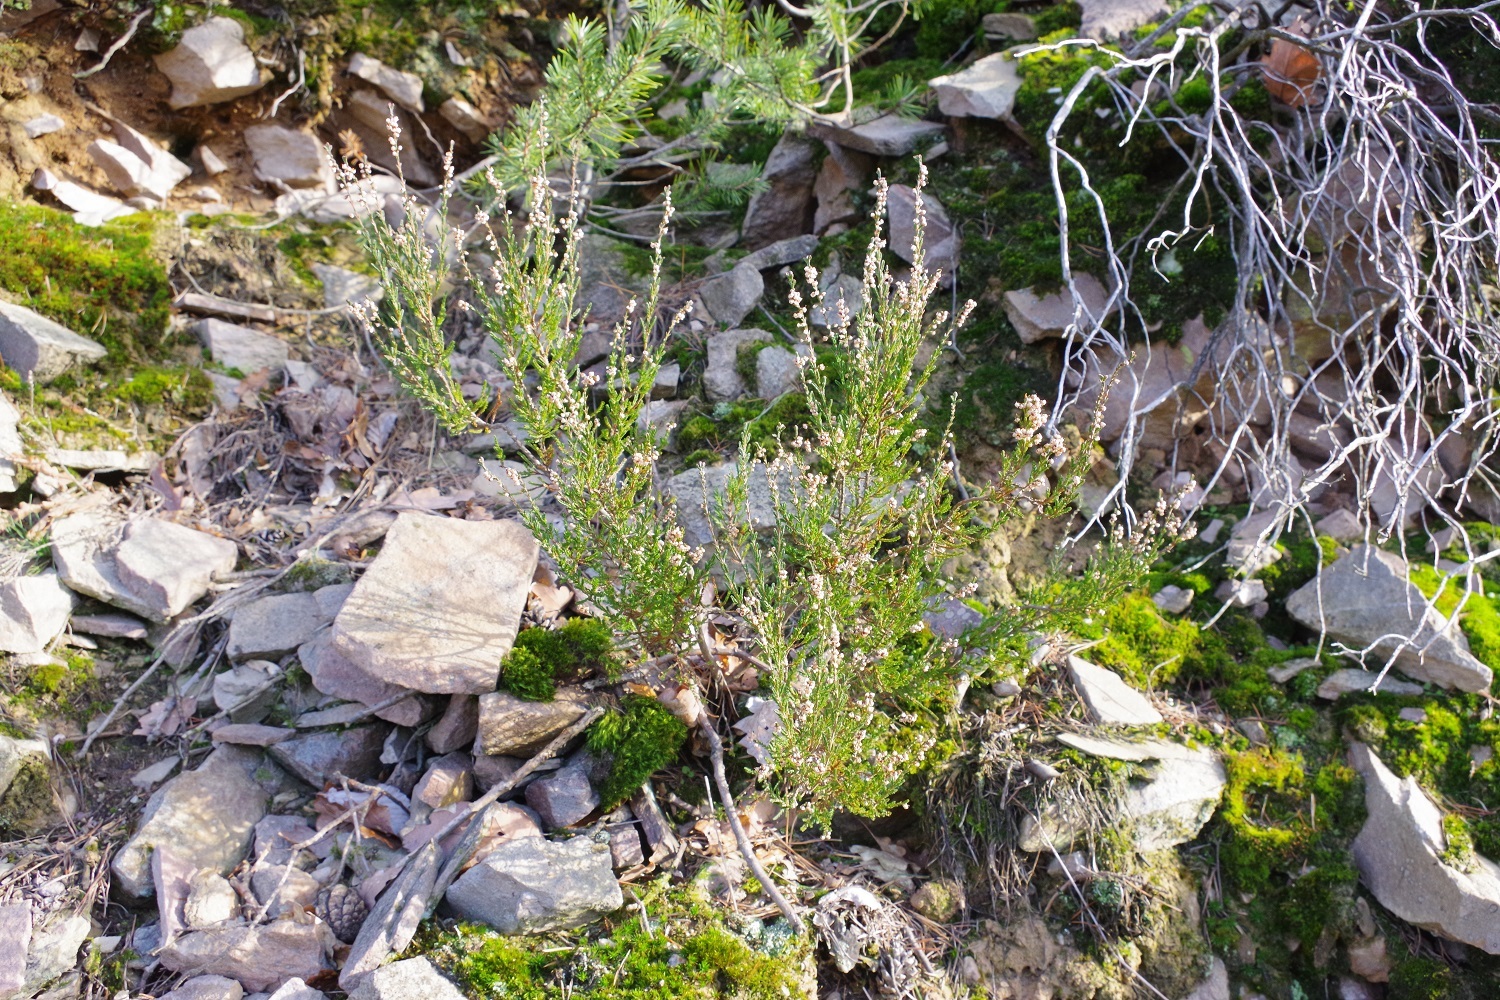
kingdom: Plantae
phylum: Tracheophyta
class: Magnoliopsida
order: Ericales
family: Ericaceae
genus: Calluna
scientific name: Calluna vulgaris
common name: Heather
